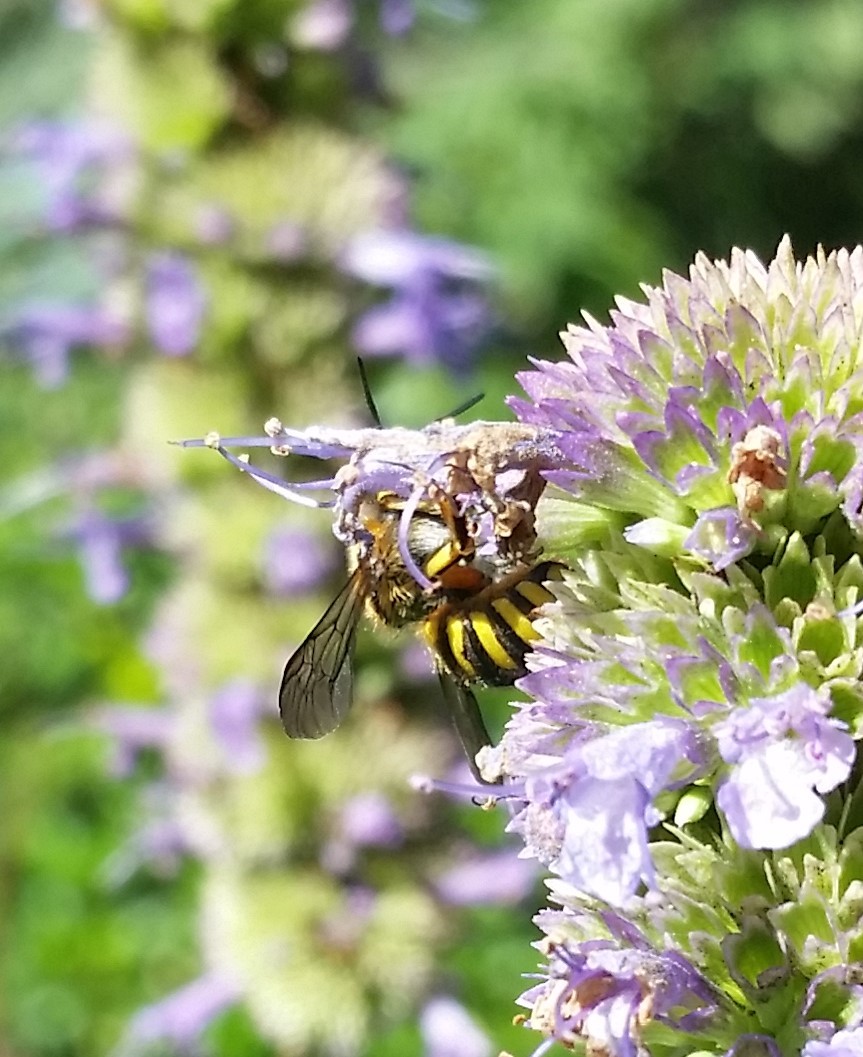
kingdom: Animalia
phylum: Arthropoda
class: Insecta
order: Hymenoptera
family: Megachilidae
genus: Anthidium
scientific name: Anthidium manicatum
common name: Wool carder bee
